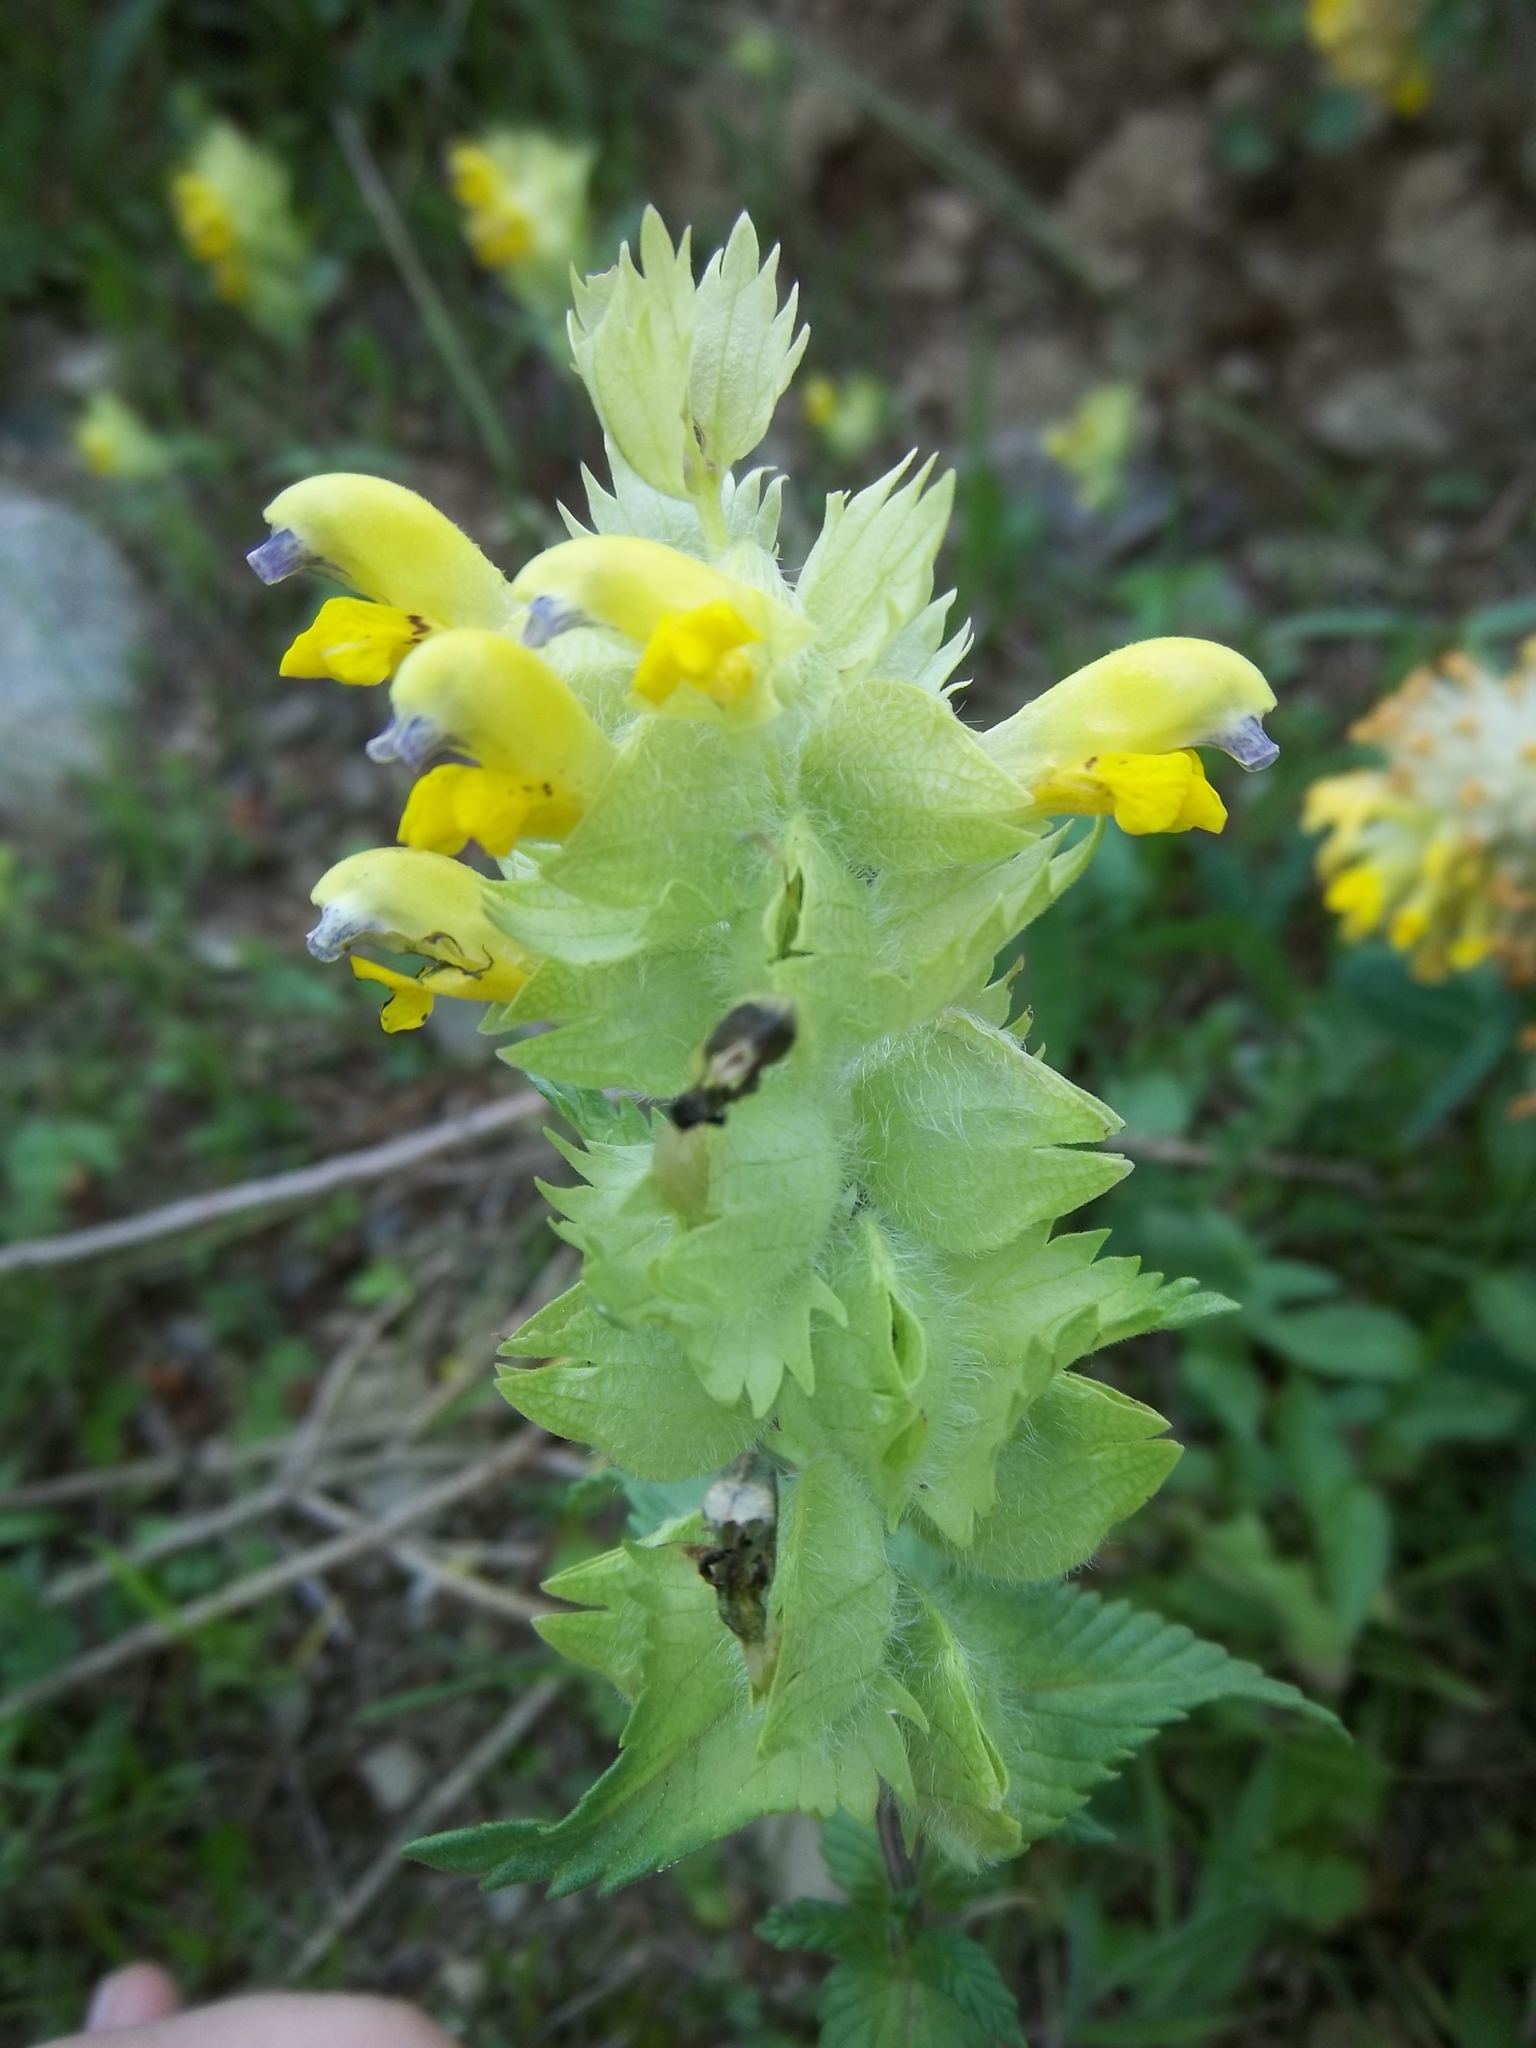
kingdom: Plantae
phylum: Tracheophyta
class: Magnoliopsida
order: Lamiales
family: Orobanchaceae
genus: Rhinanthus
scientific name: Rhinanthus alectorolophus
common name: Greater yellow-rattle
